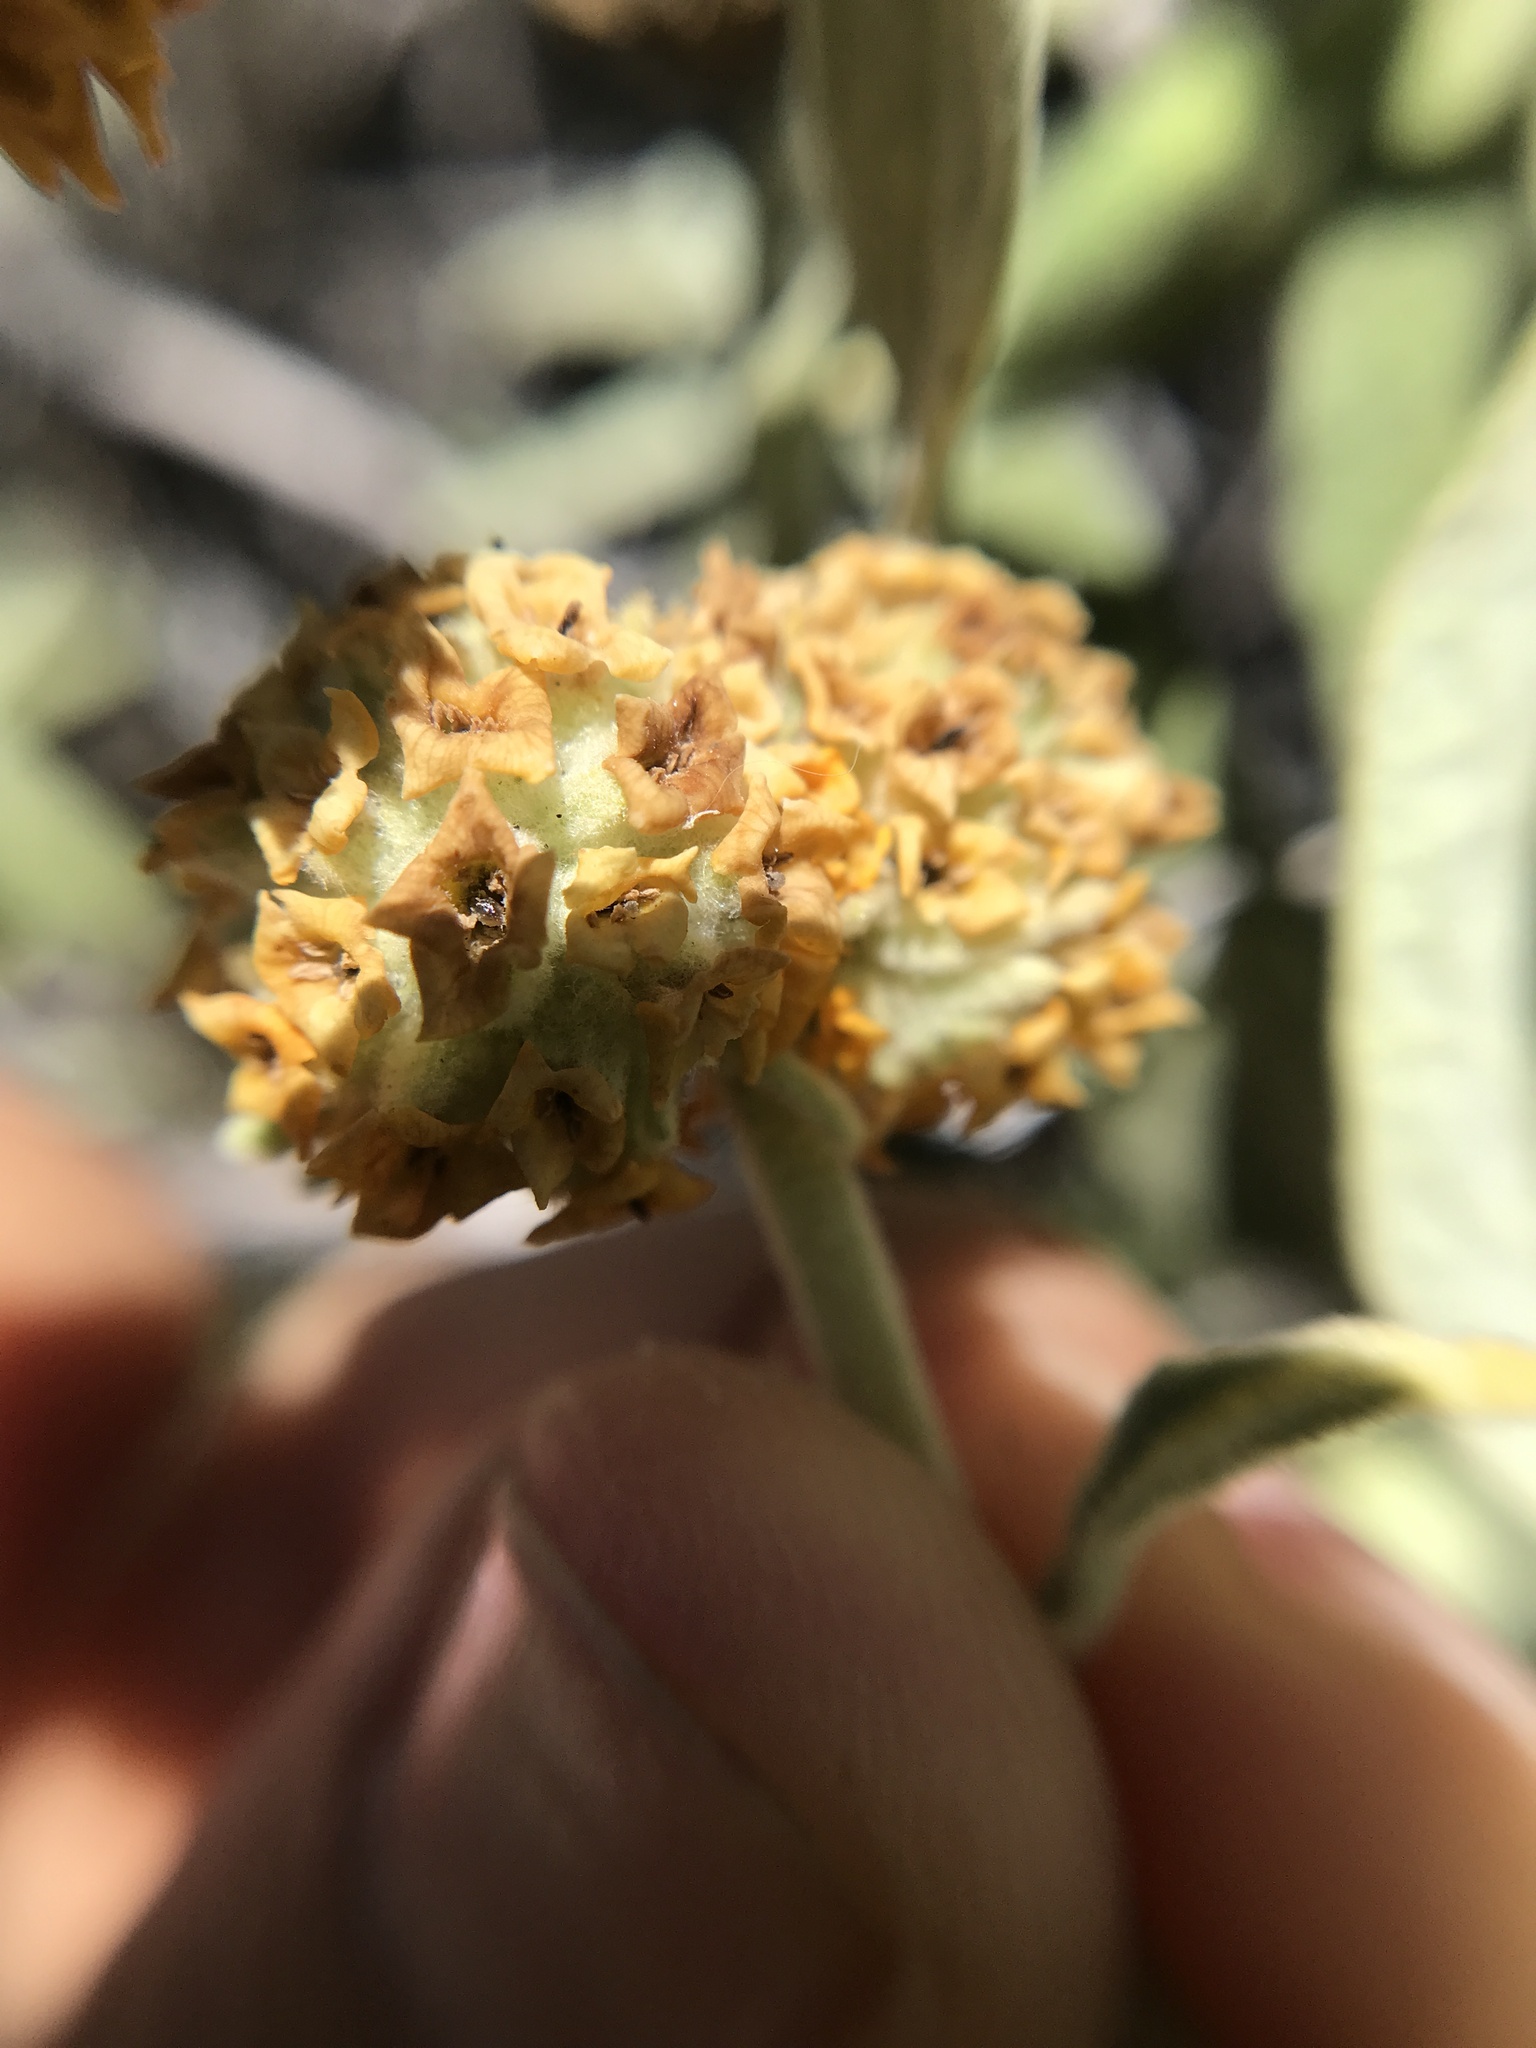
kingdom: Plantae
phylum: Tracheophyta
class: Magnoliopsida
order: Lamiales
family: Scrophulariaceae
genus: Buddleja
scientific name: Buddleja araucana
